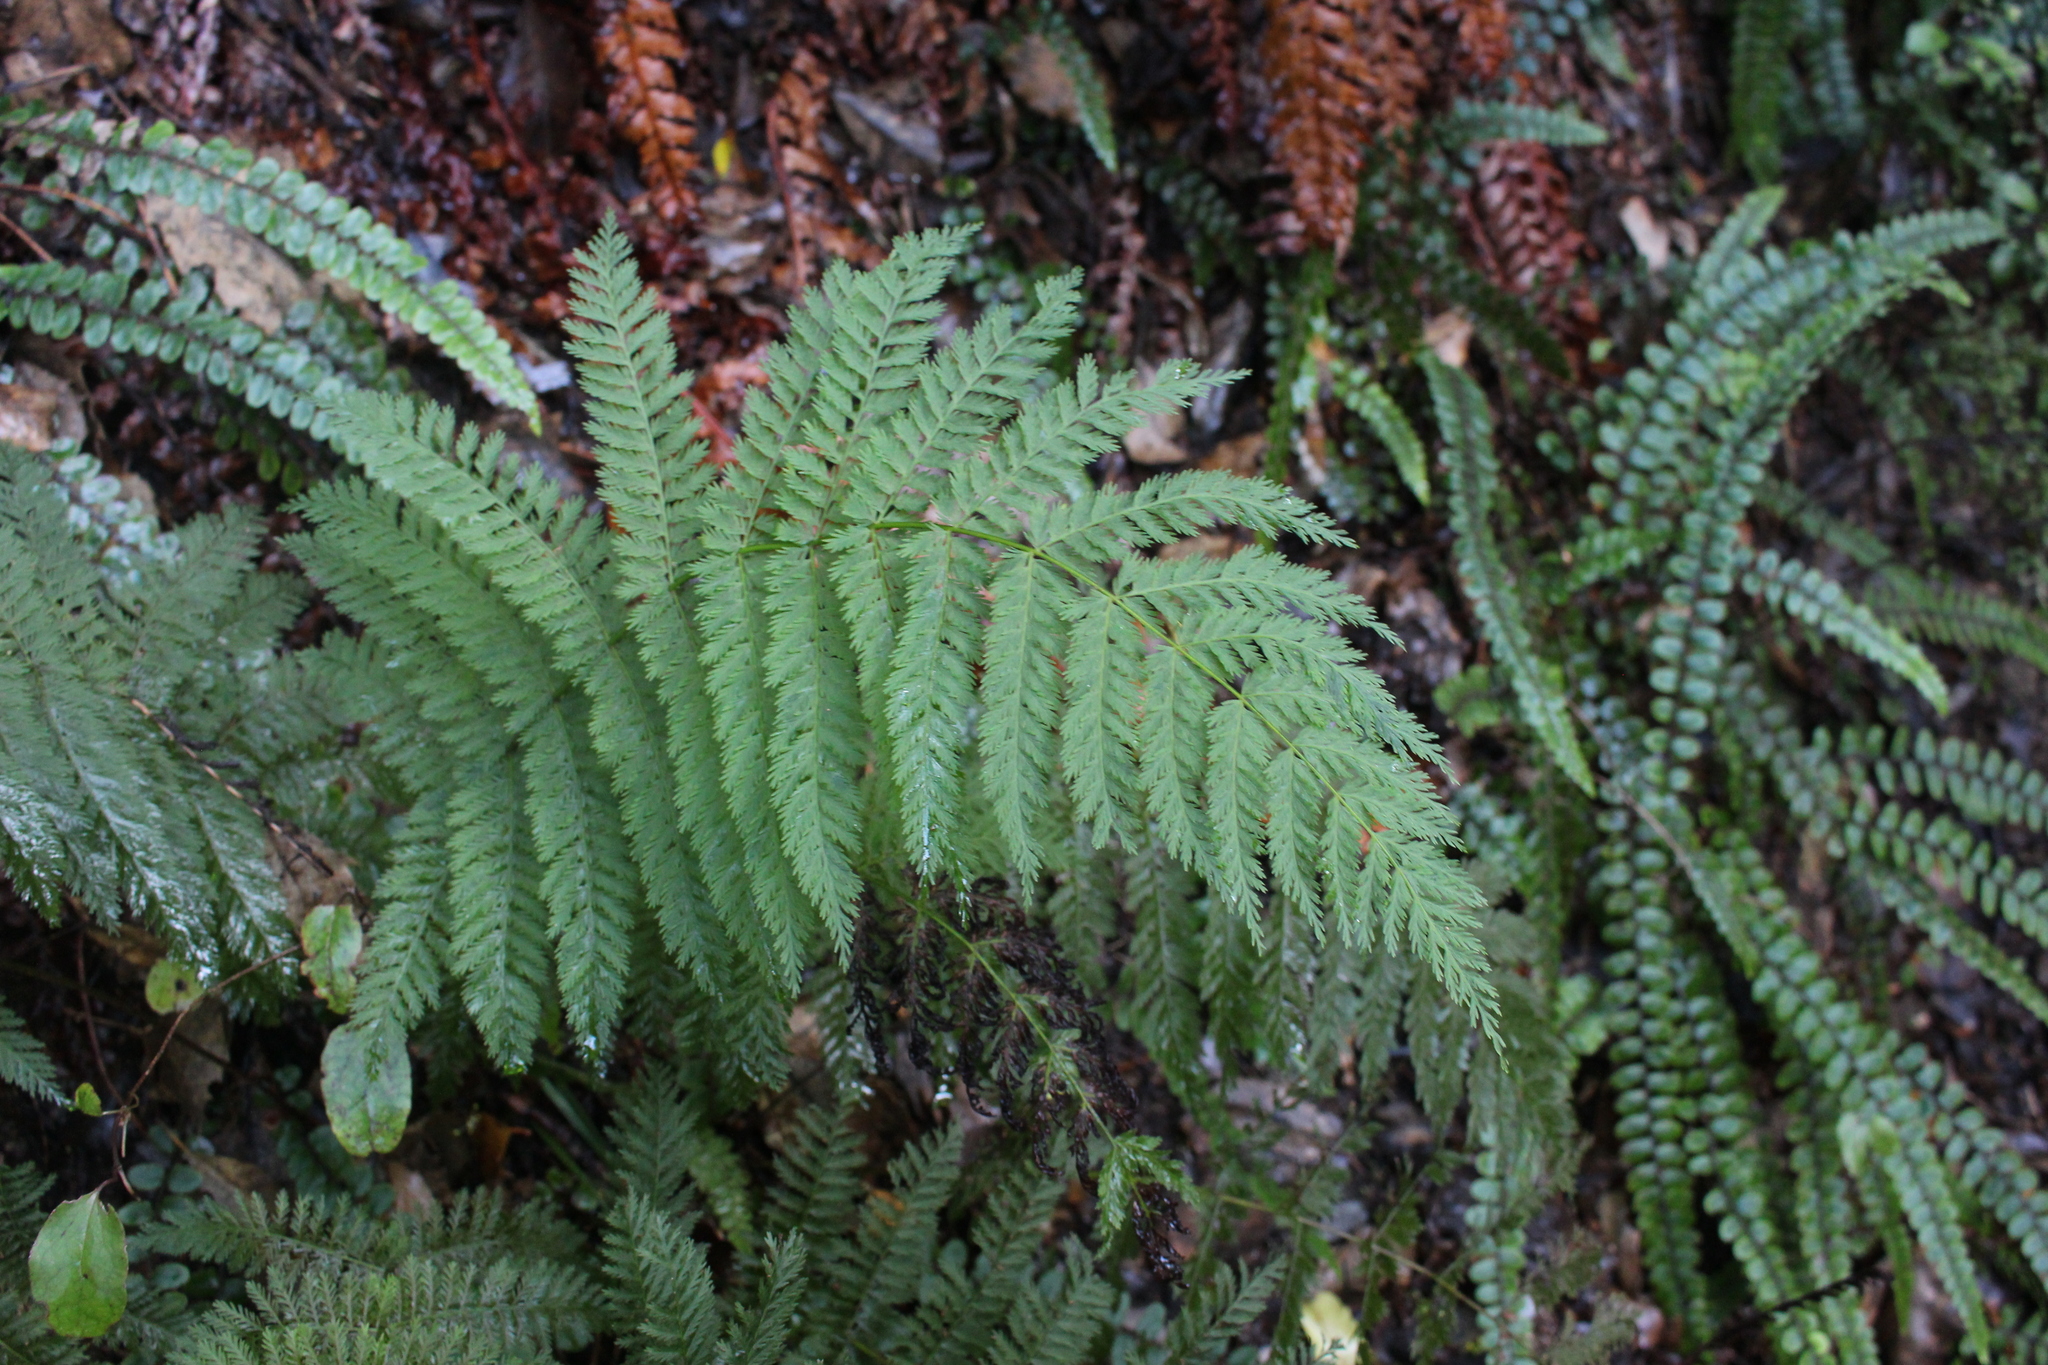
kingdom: Plantae
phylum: Tracheophyta
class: Polypodiopsida
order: Osmundales
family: Osmundaceae
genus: Leptopteris
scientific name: Leptopteris hymenophylloides
